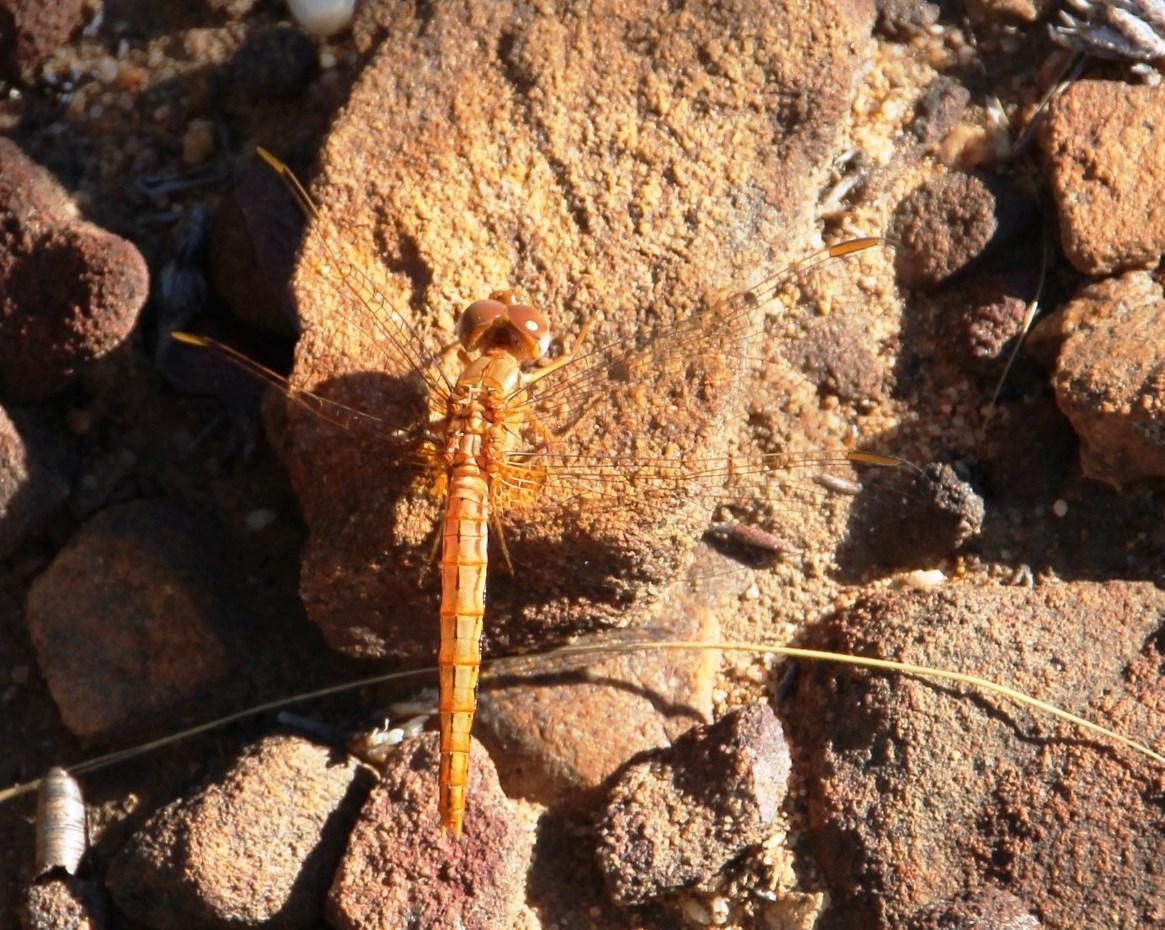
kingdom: Animalia
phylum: Arthropoda
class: Insecta
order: Odonata
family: Libellulidae
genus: Crocothemis
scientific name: Crocothemis sanguinolenta
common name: Little scarlet
